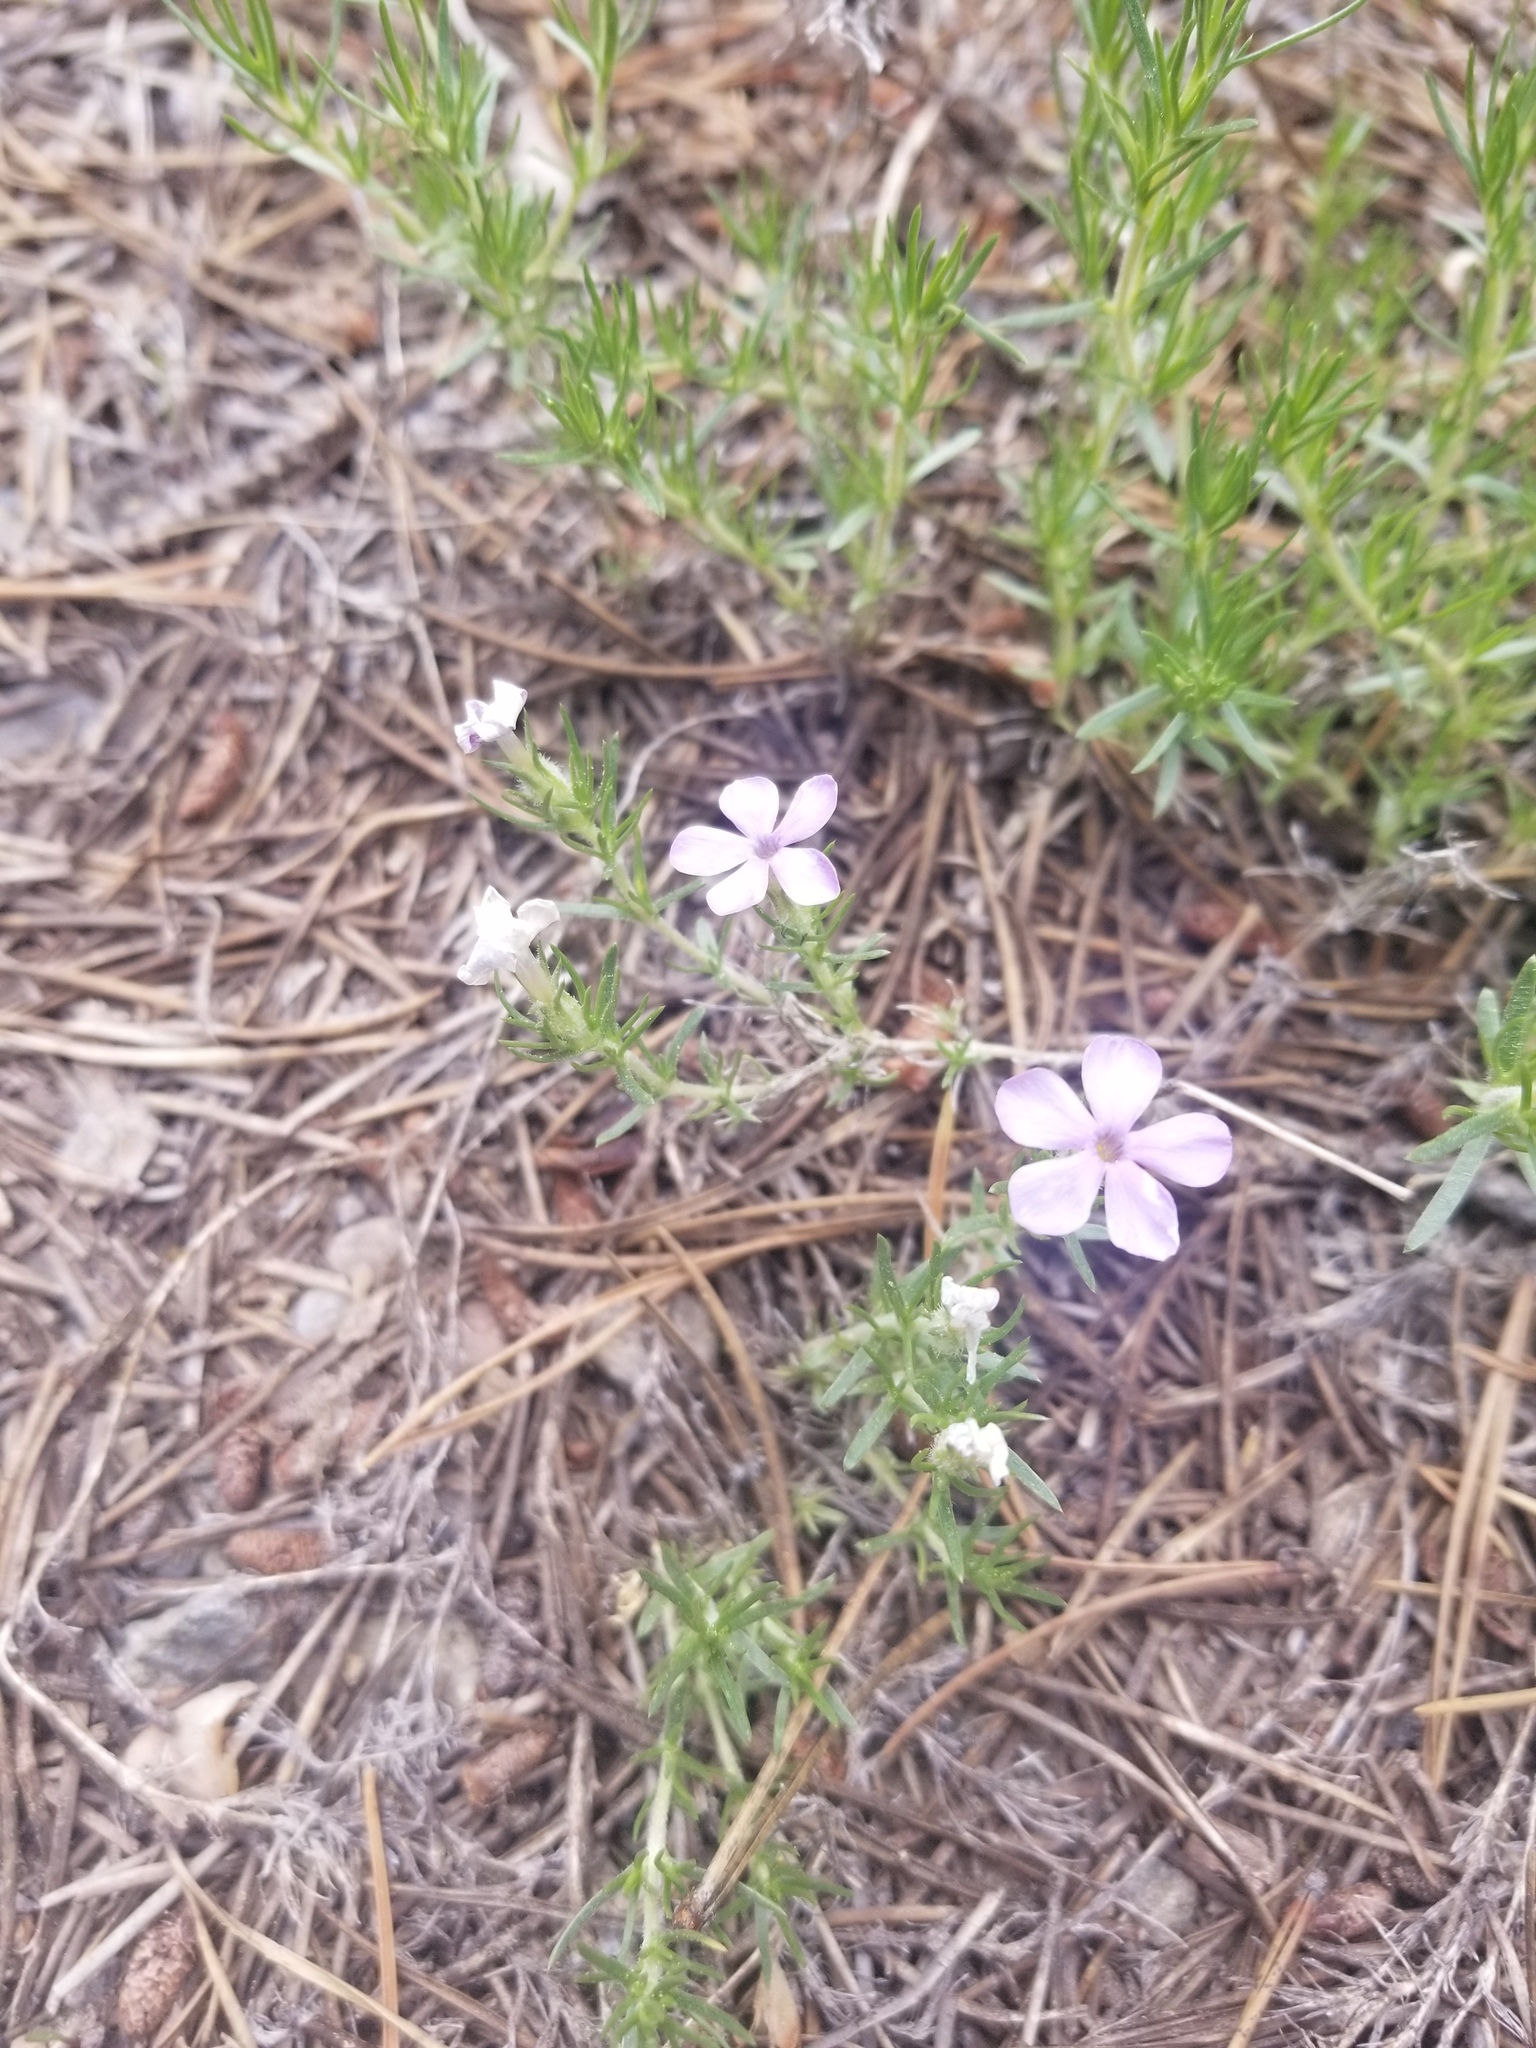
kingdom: Plantae
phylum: Tracheophyta
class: Magnoliopsida
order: Ericales
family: Polemoniaceae
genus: Phlox
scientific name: Phlox diffusa
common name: Mat phlox
